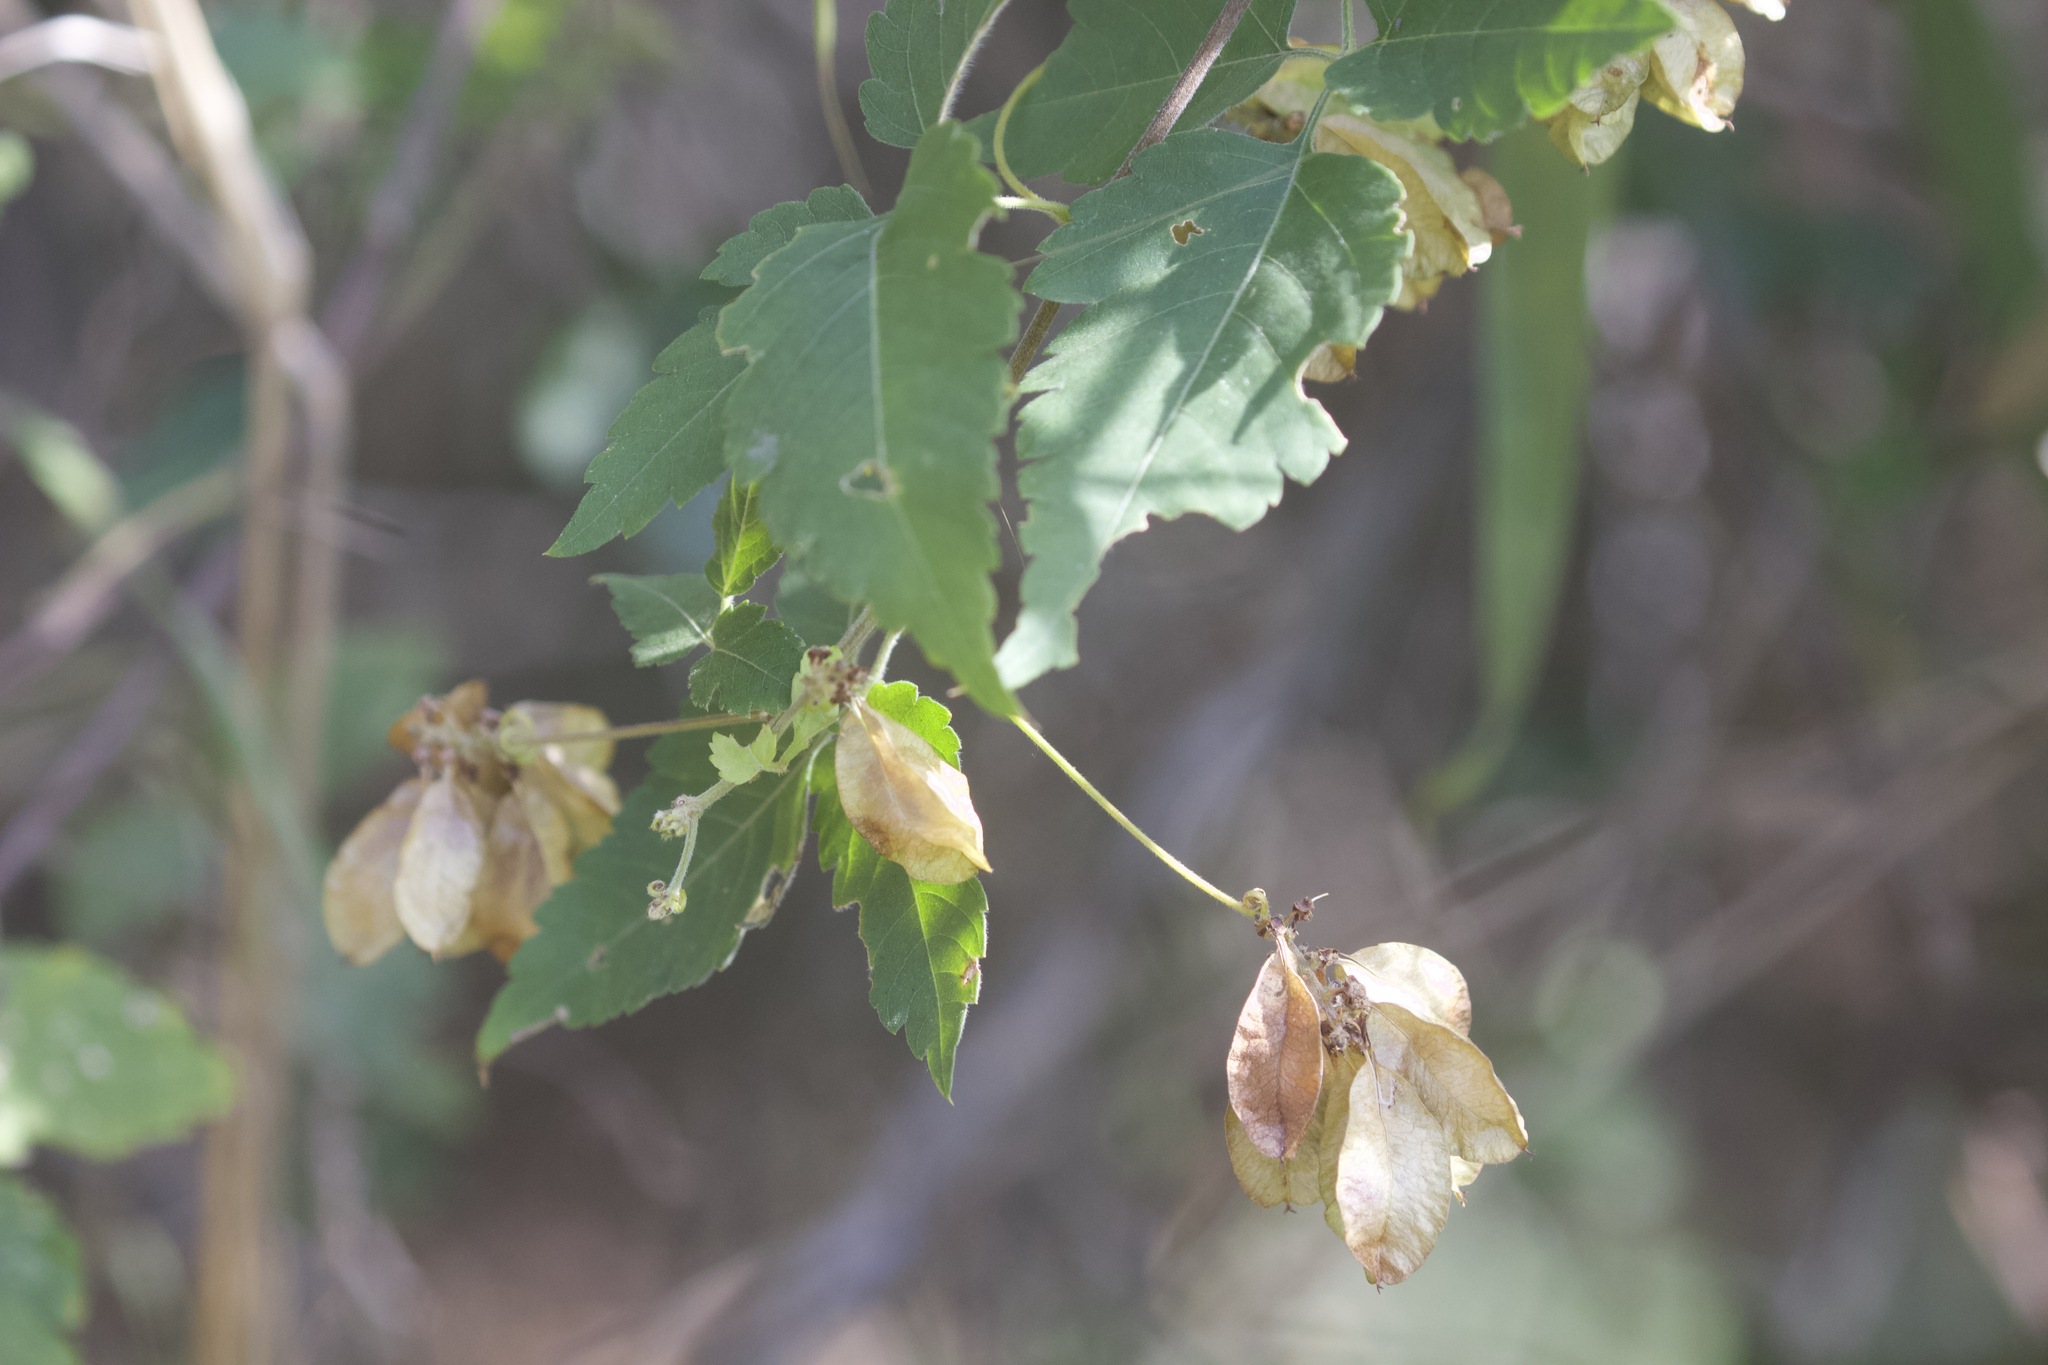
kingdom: Plantae
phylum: Tracheophyta
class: Magnoliopsida
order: Sapindales
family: Sapindaceae
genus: Urvillea
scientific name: Urvillea ulmacea
